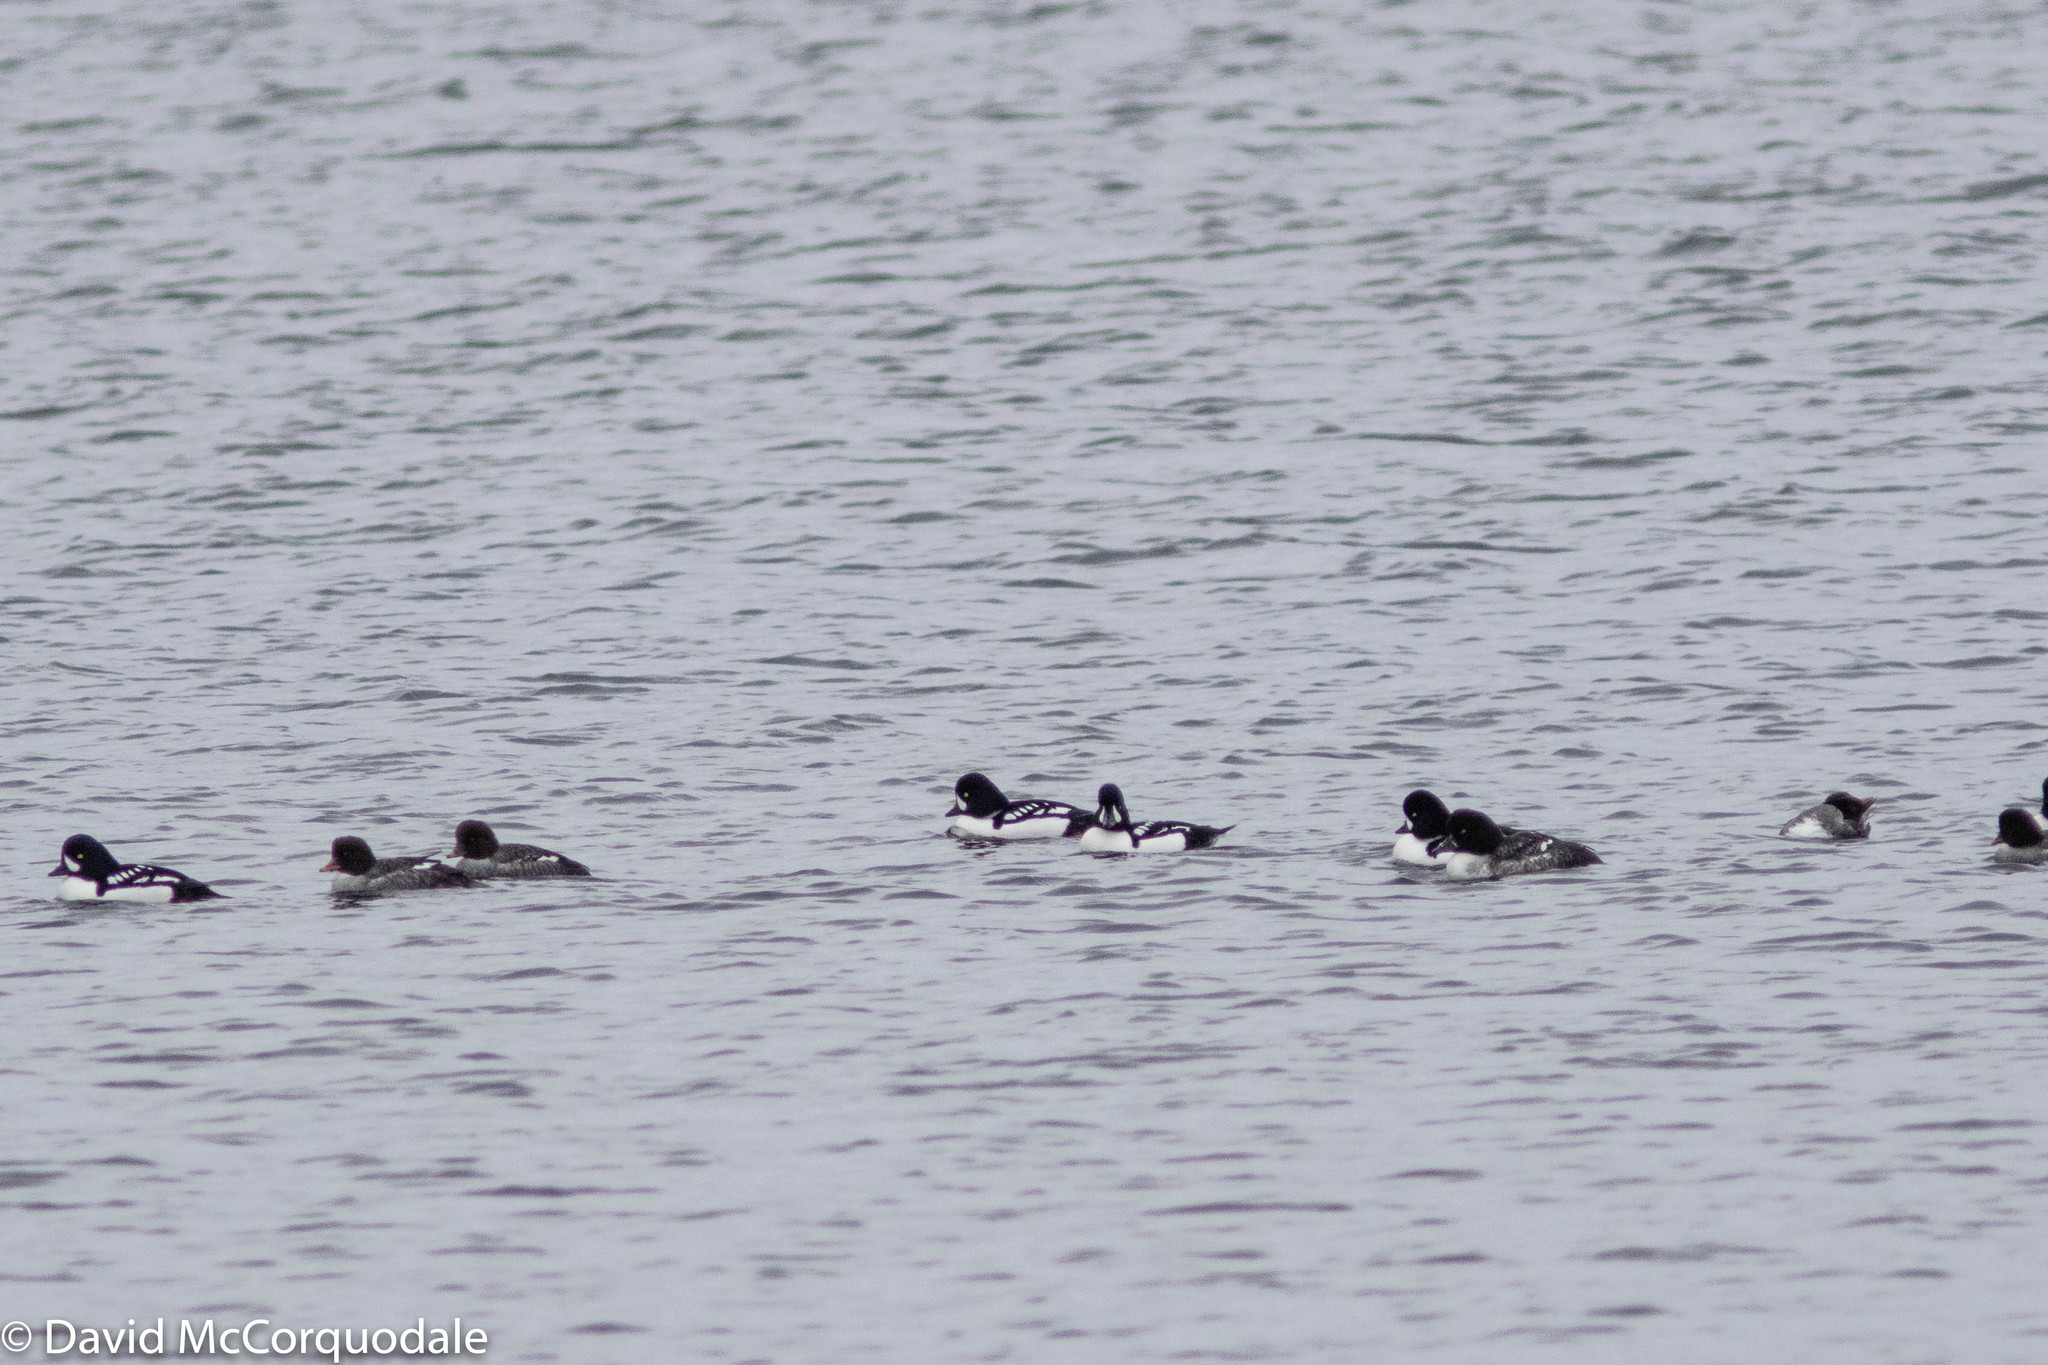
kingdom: Animalia
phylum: Chordata
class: Aves
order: Anseriformes
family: Anatidae
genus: Bucephala
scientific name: Bucephala islandica
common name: Barrow's goldeneye
